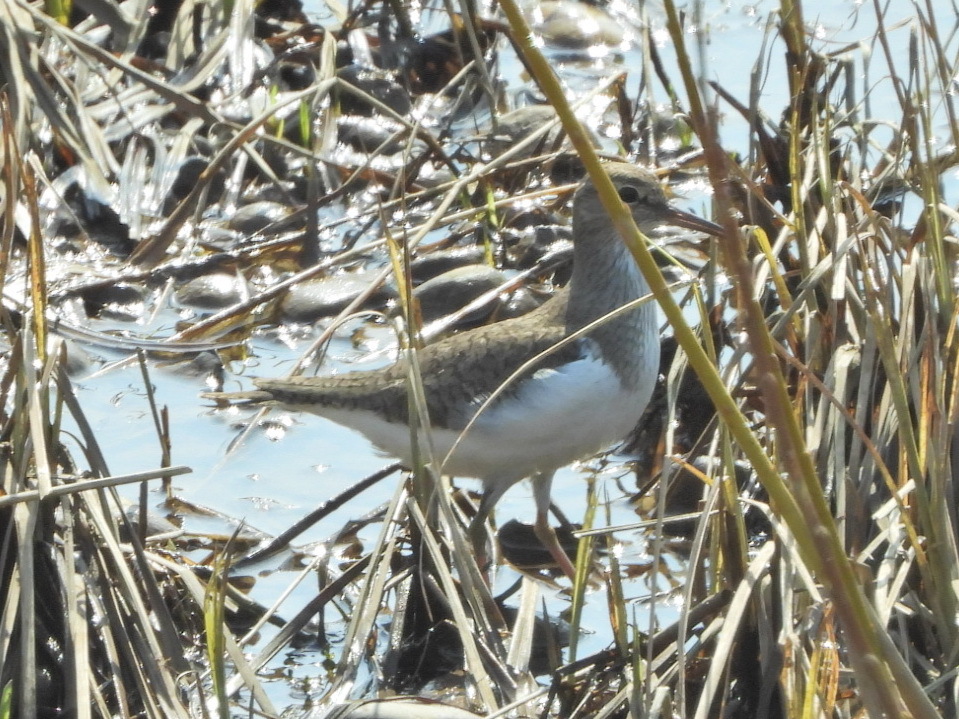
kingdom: Animalia
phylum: Chordata
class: Aves
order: Charadriiformes
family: Scolopacidae
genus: Actitis
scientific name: Actitis hypoleucos
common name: Common sandpiper
